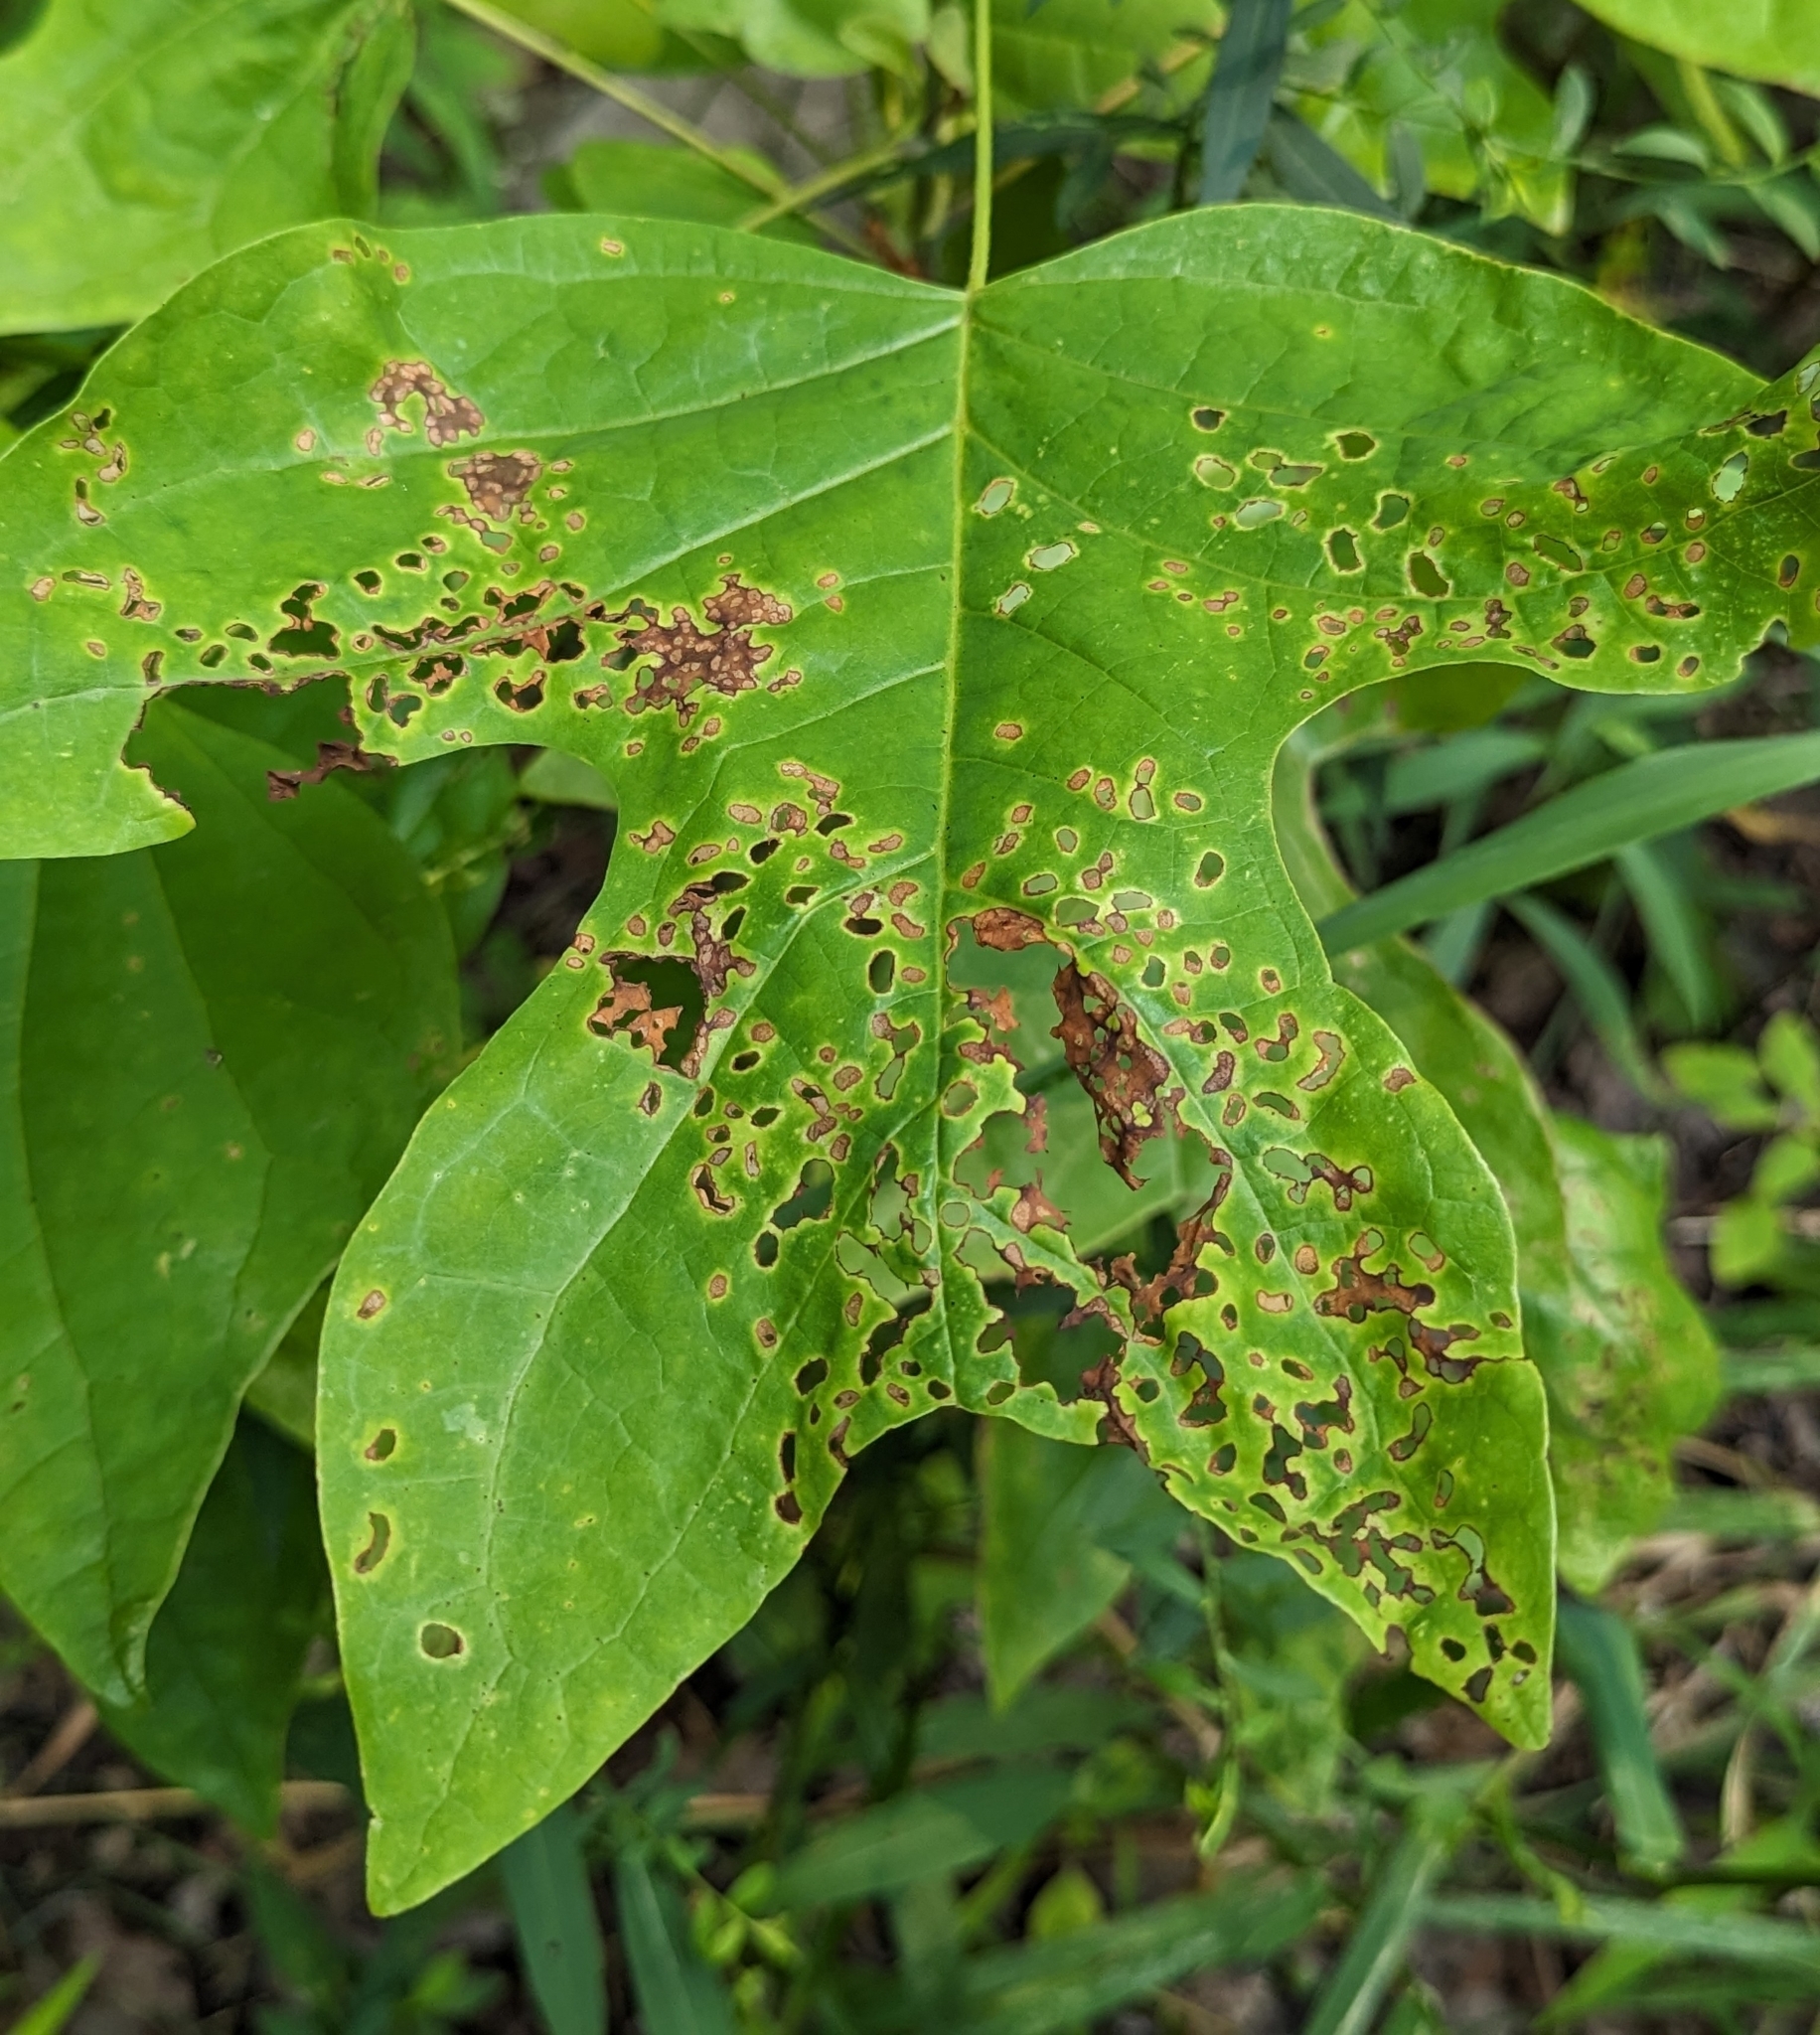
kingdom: Plantae
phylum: Tracheophyta
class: Magnoliopsida
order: Magnoliales
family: Magnoliaceae
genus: Liriodendron
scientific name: Liriodendron tulipifera
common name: Tulip tree
